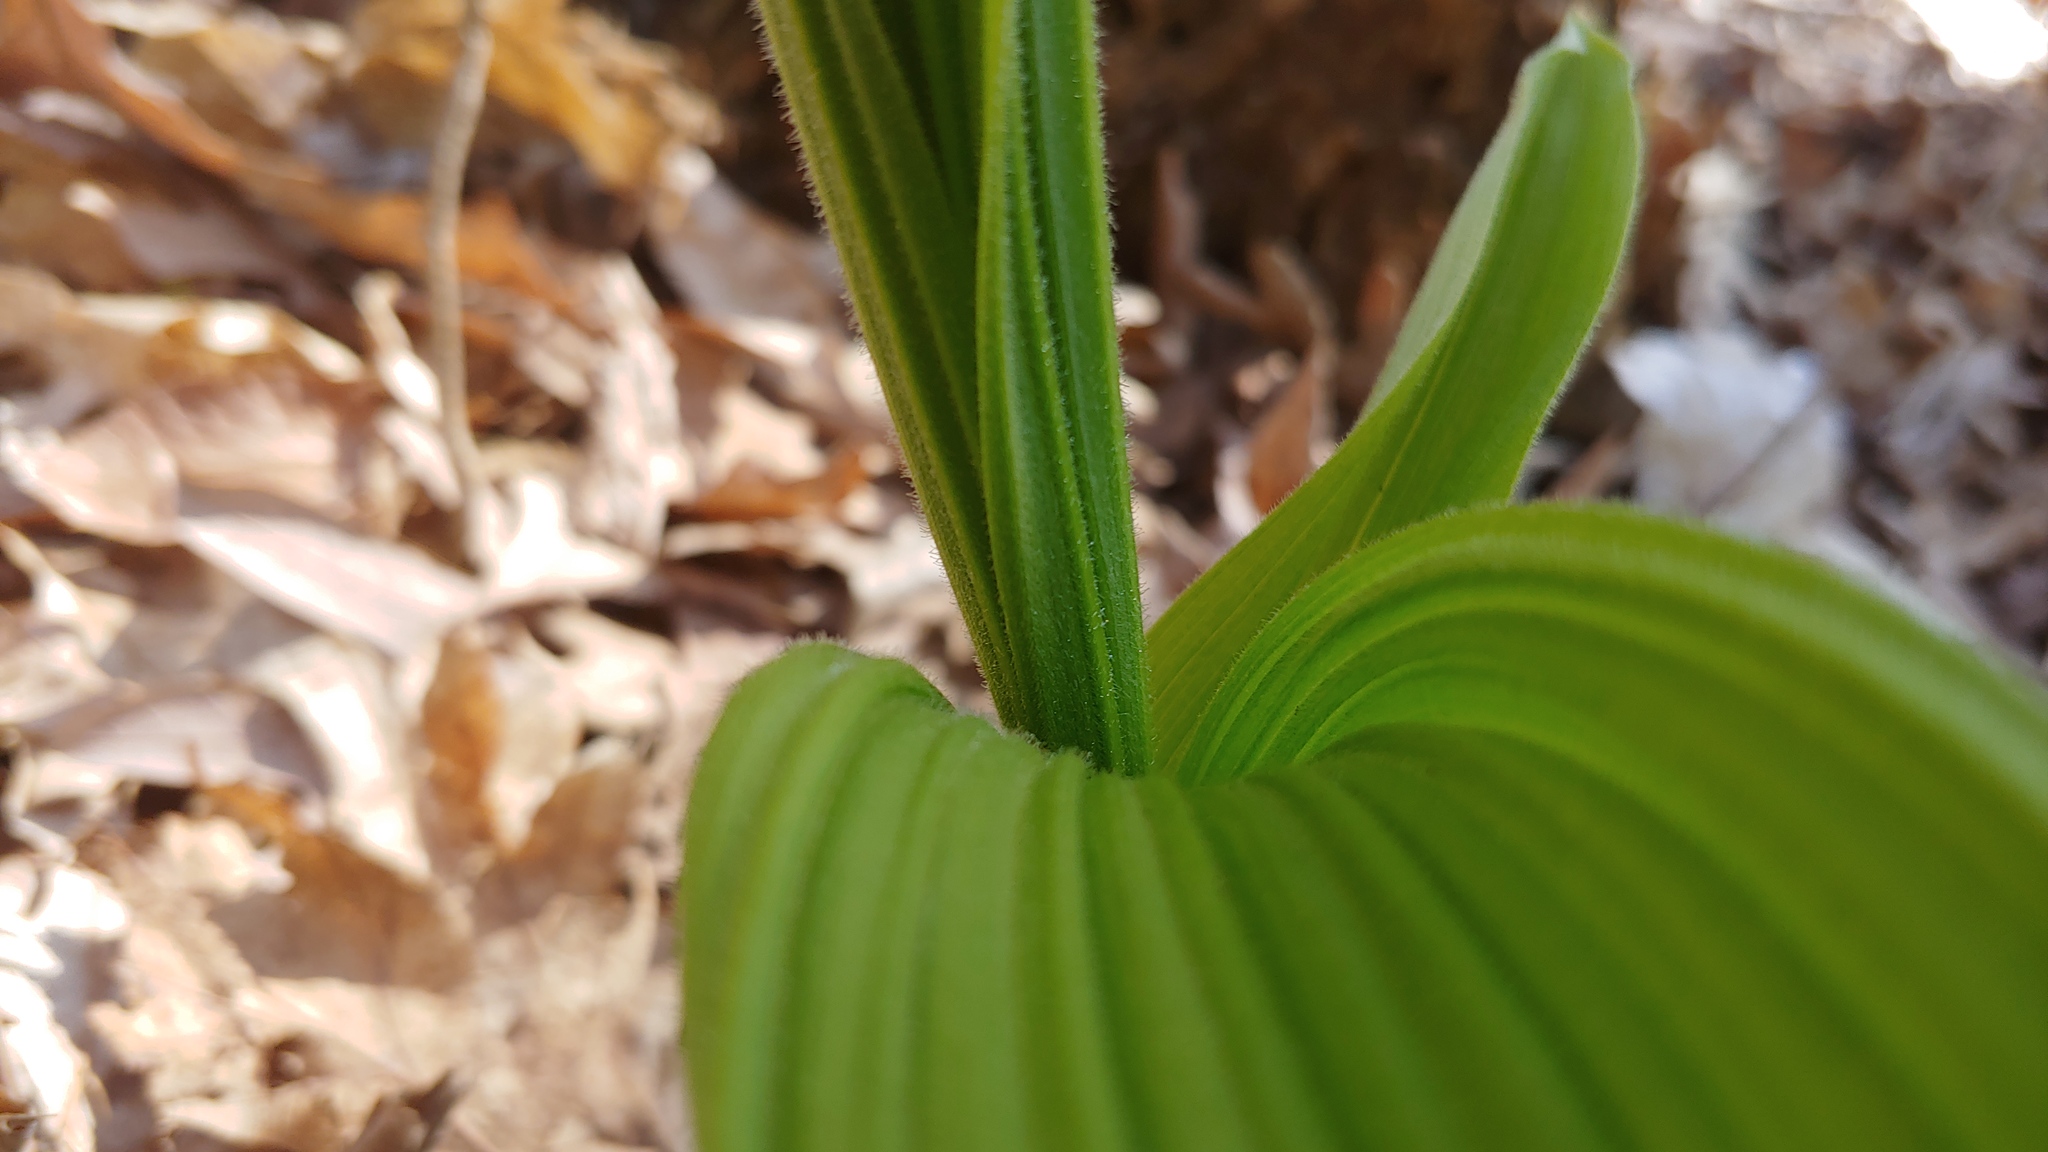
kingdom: Plantae
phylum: Tracheophyta
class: Liliopsida
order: Asparagales
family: Orchidaceae
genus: Cypripedium
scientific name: Cypripedium parviflorum
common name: American yellow lady's-slipper
